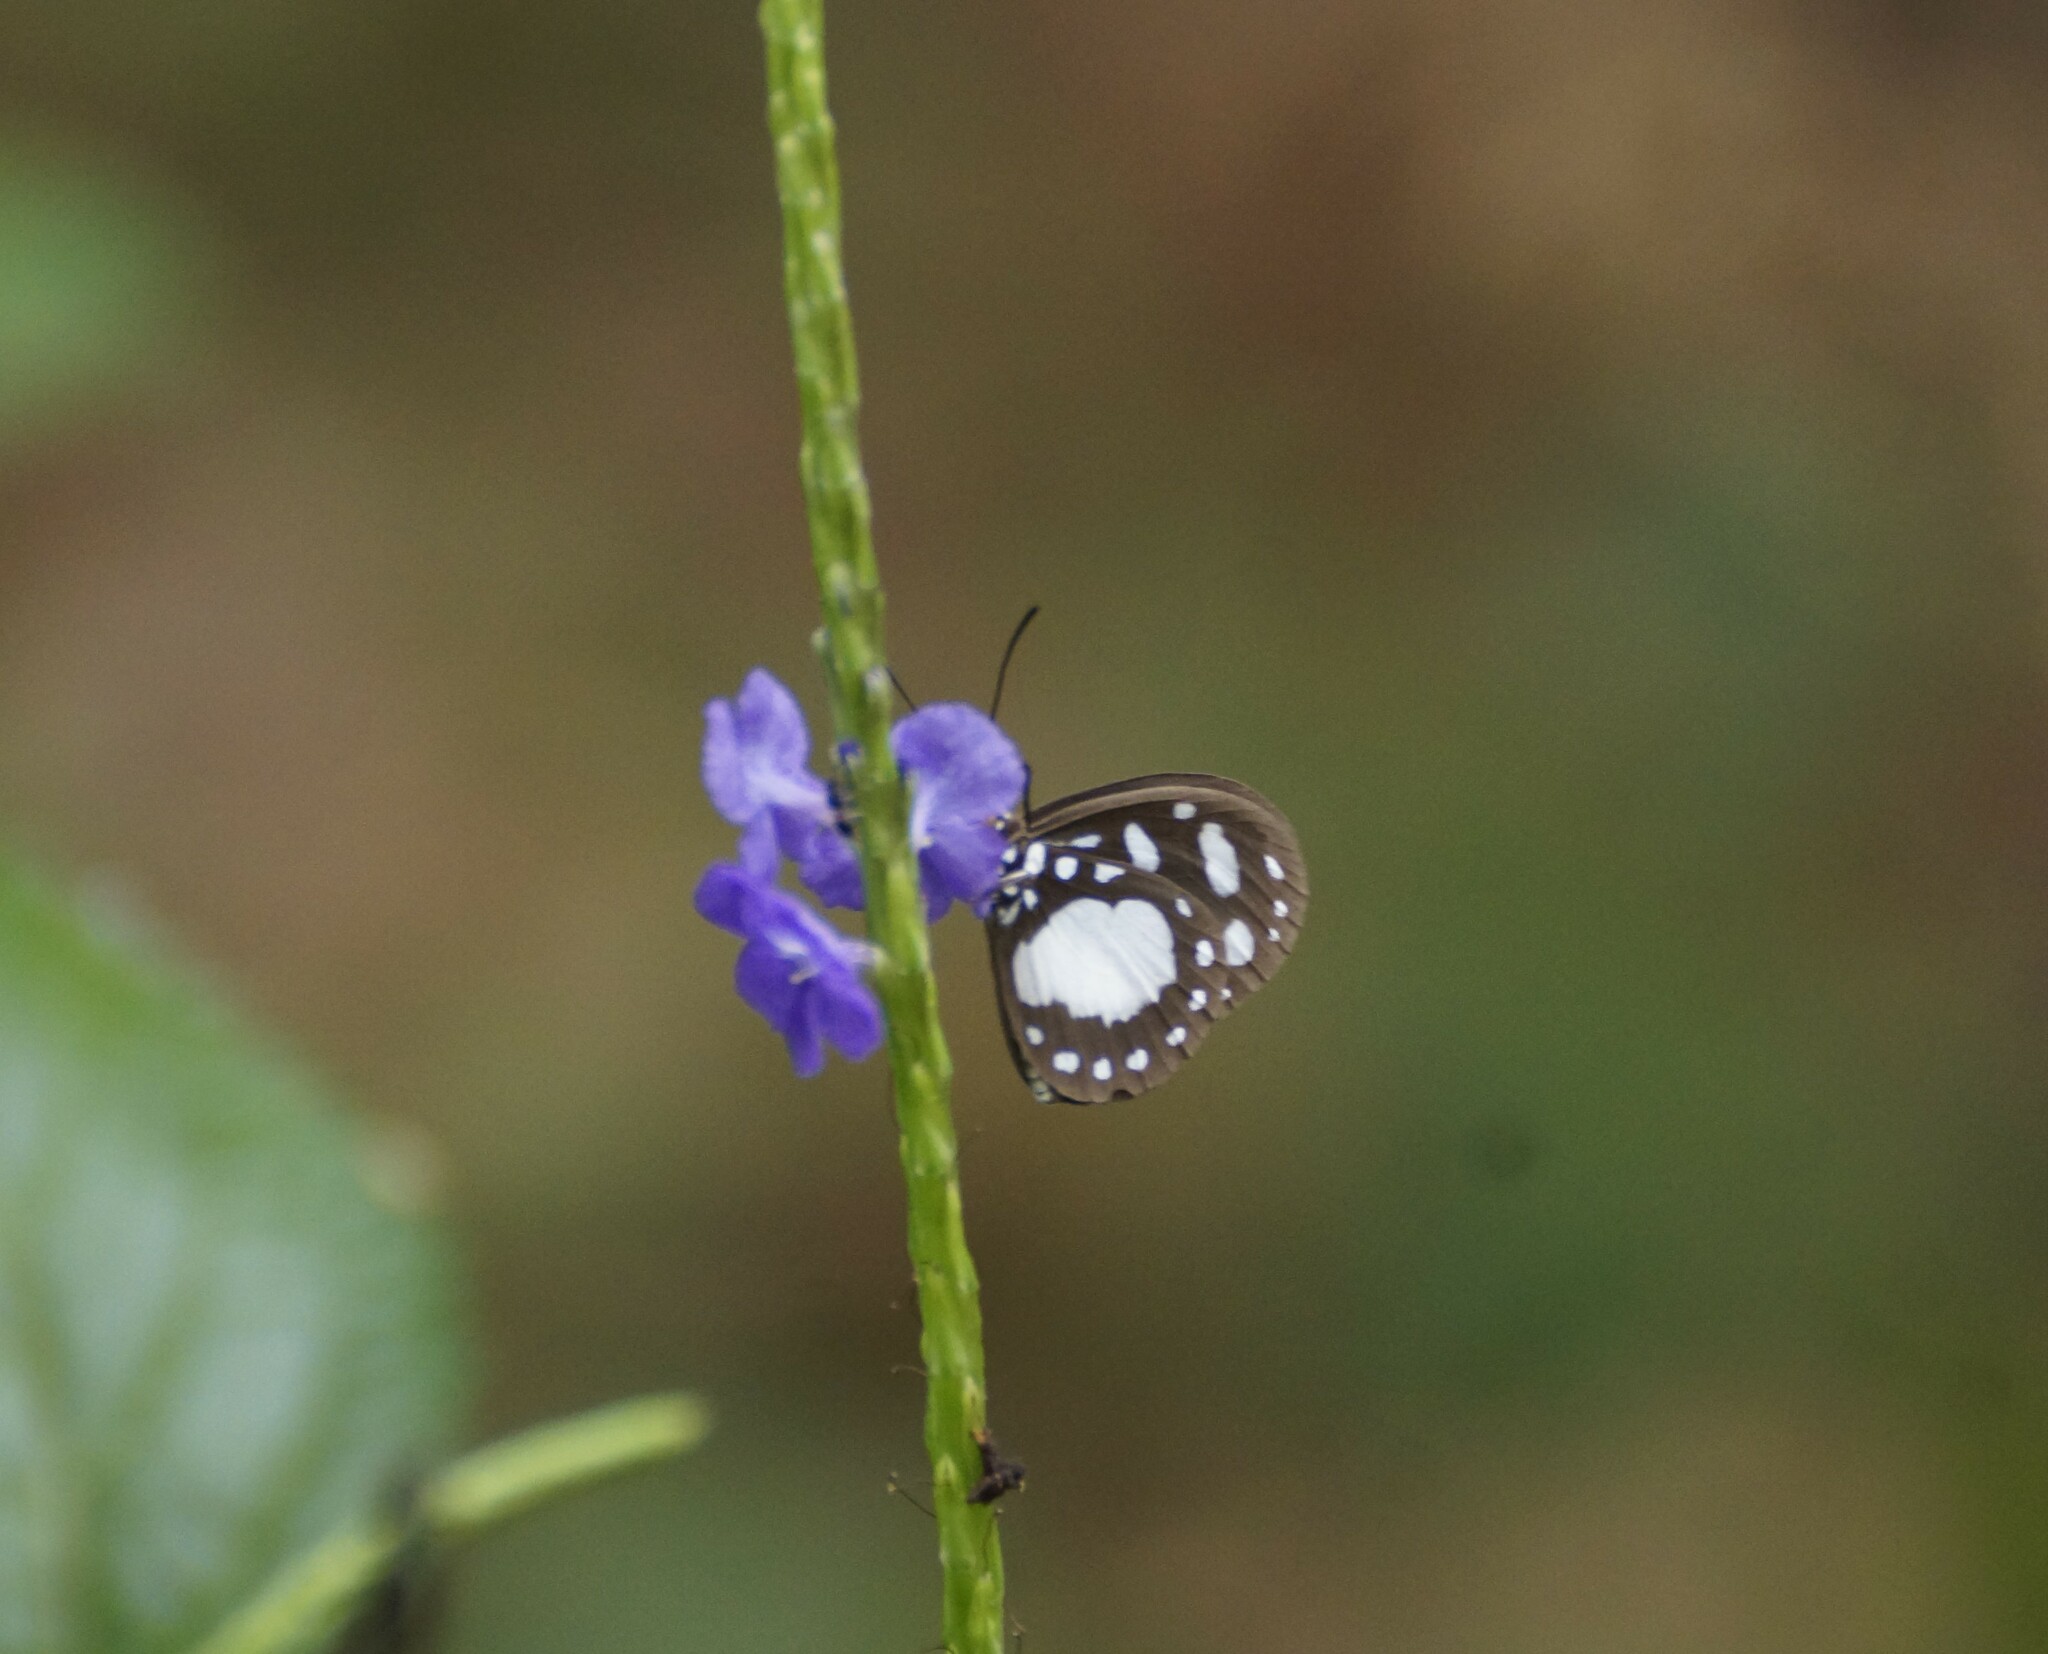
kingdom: Animalia
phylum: Arthropoda
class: Insecta
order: Lepidoptera
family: Nymphalidae
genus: Tellervo
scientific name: Tellervo zoilus
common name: Hamadryad
